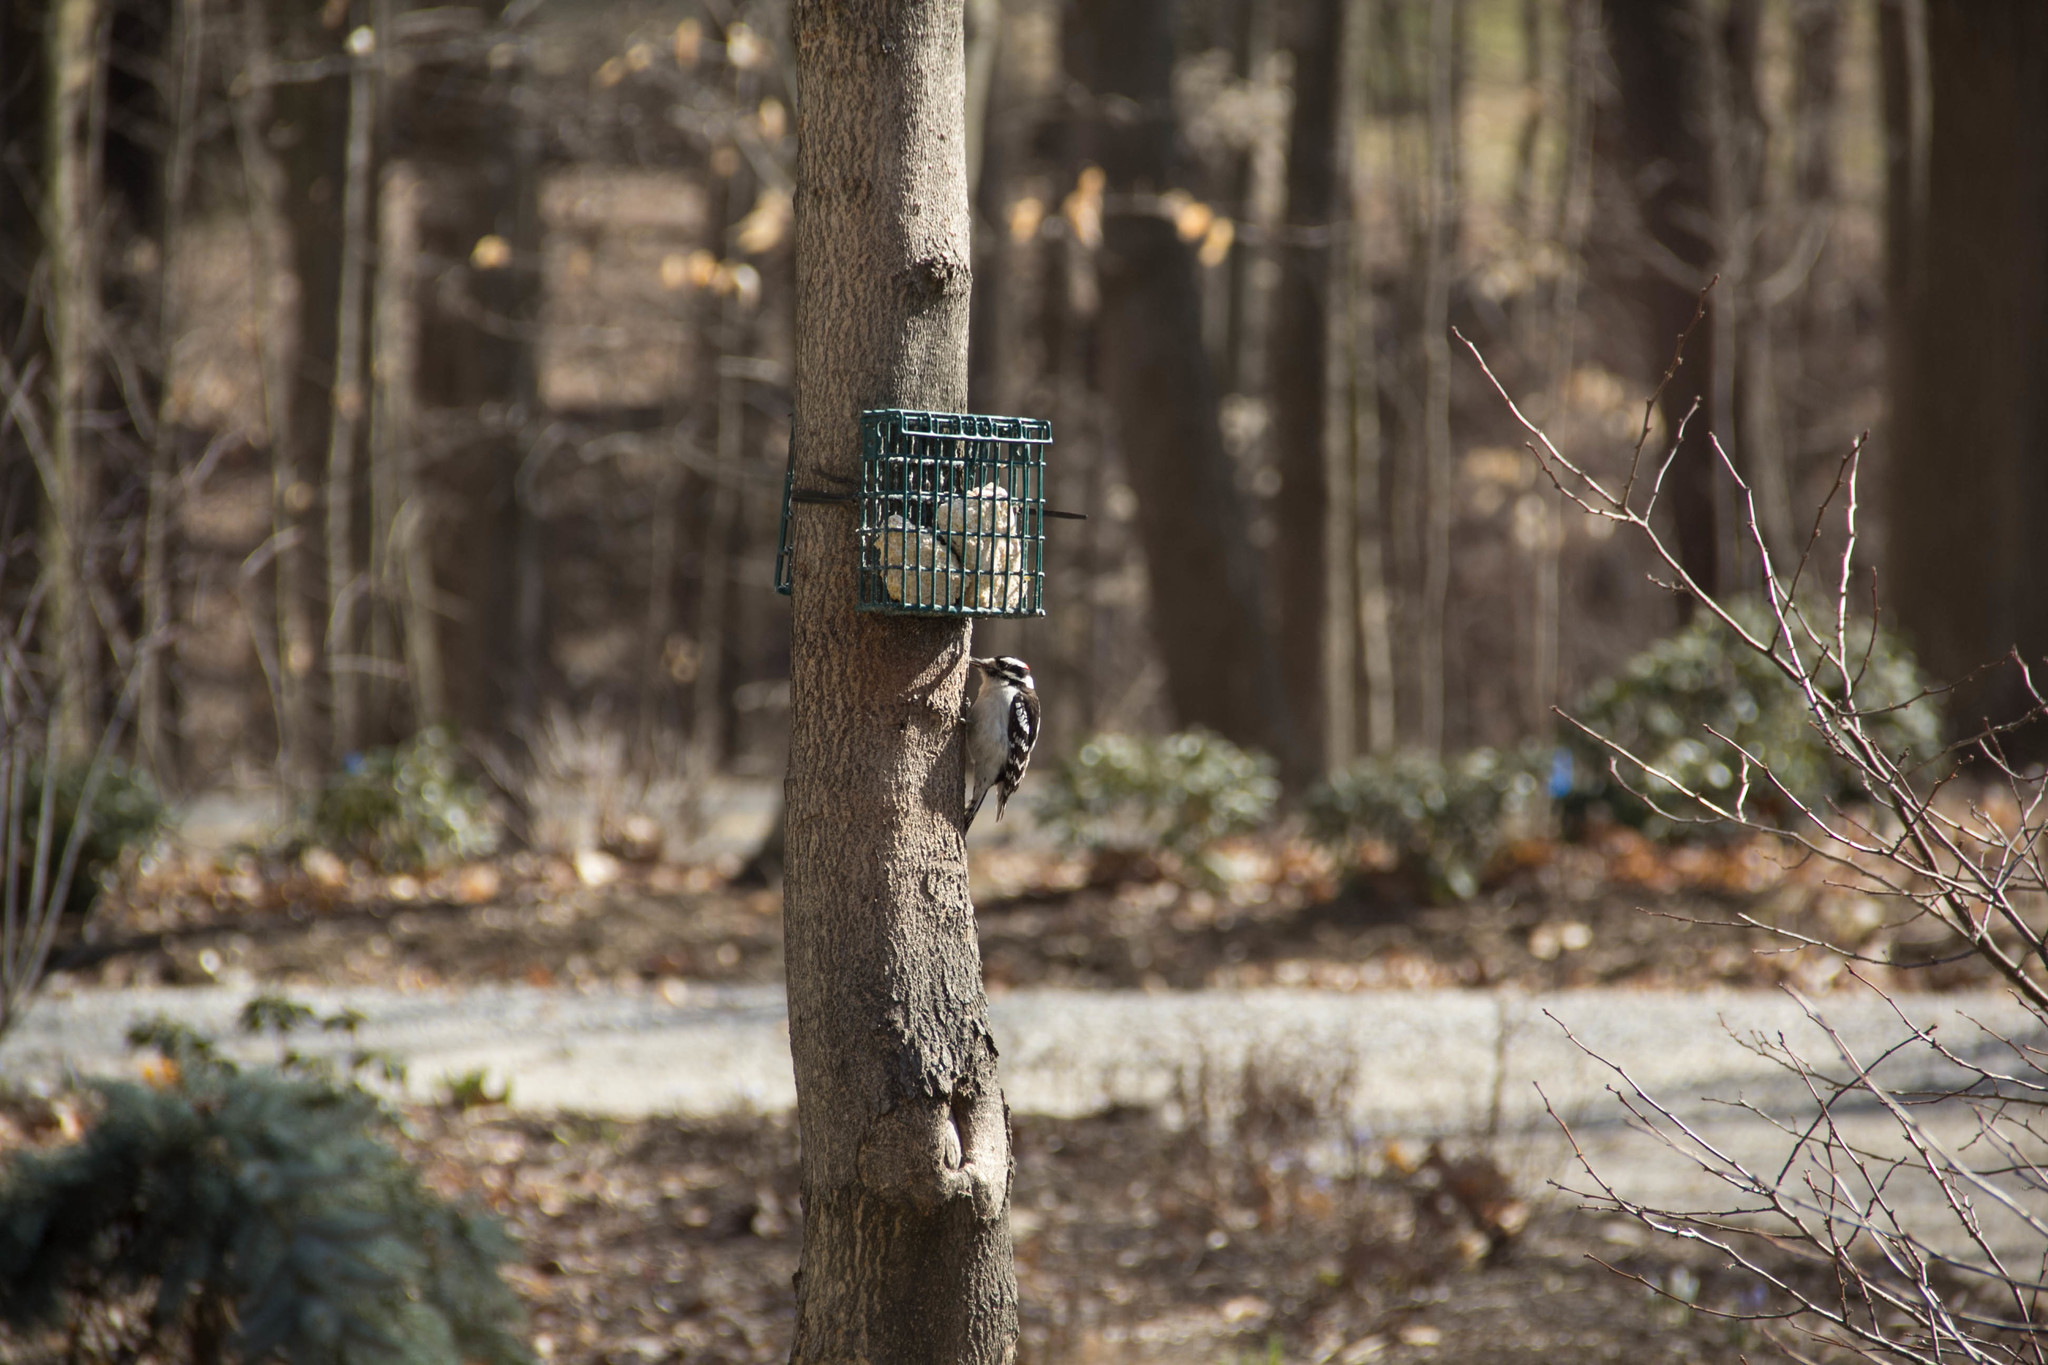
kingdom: Animalia
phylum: Chordata
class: Aves
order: Piciformes
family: Picidae
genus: Dryobates
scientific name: Dryobates pubescens
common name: Downy woodpecker
